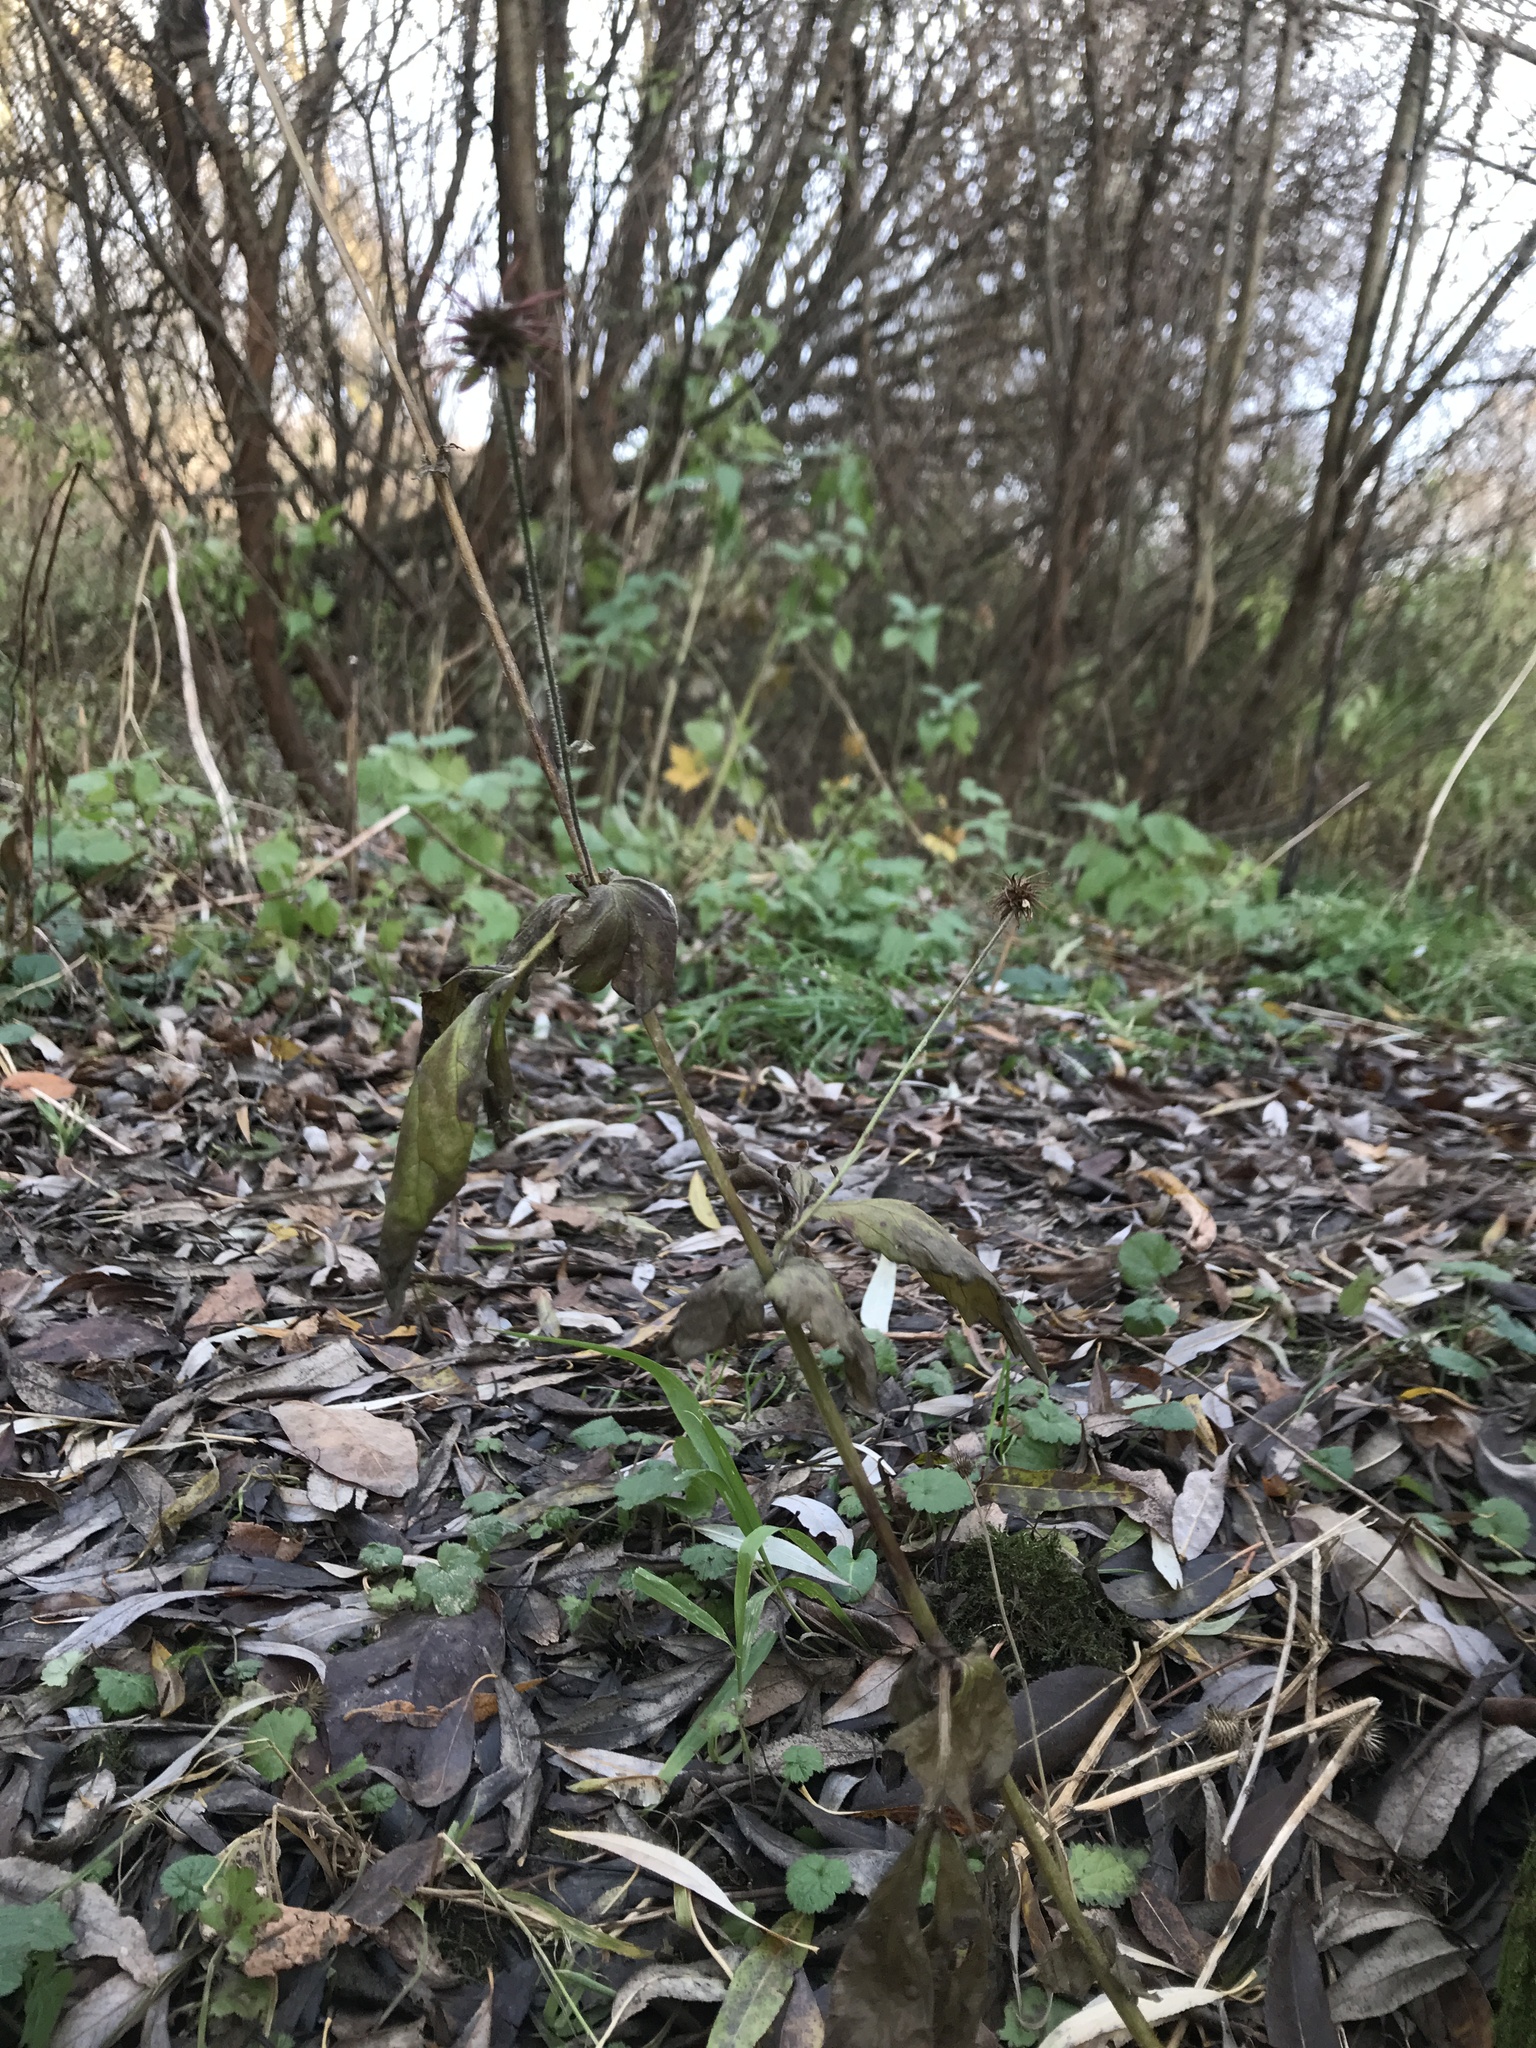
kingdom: Plantae
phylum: Tracheophyta
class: Magnoliopsida
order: Rosales
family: Rosaceae
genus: Geum
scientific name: Geum urbanum
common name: Wood avens
